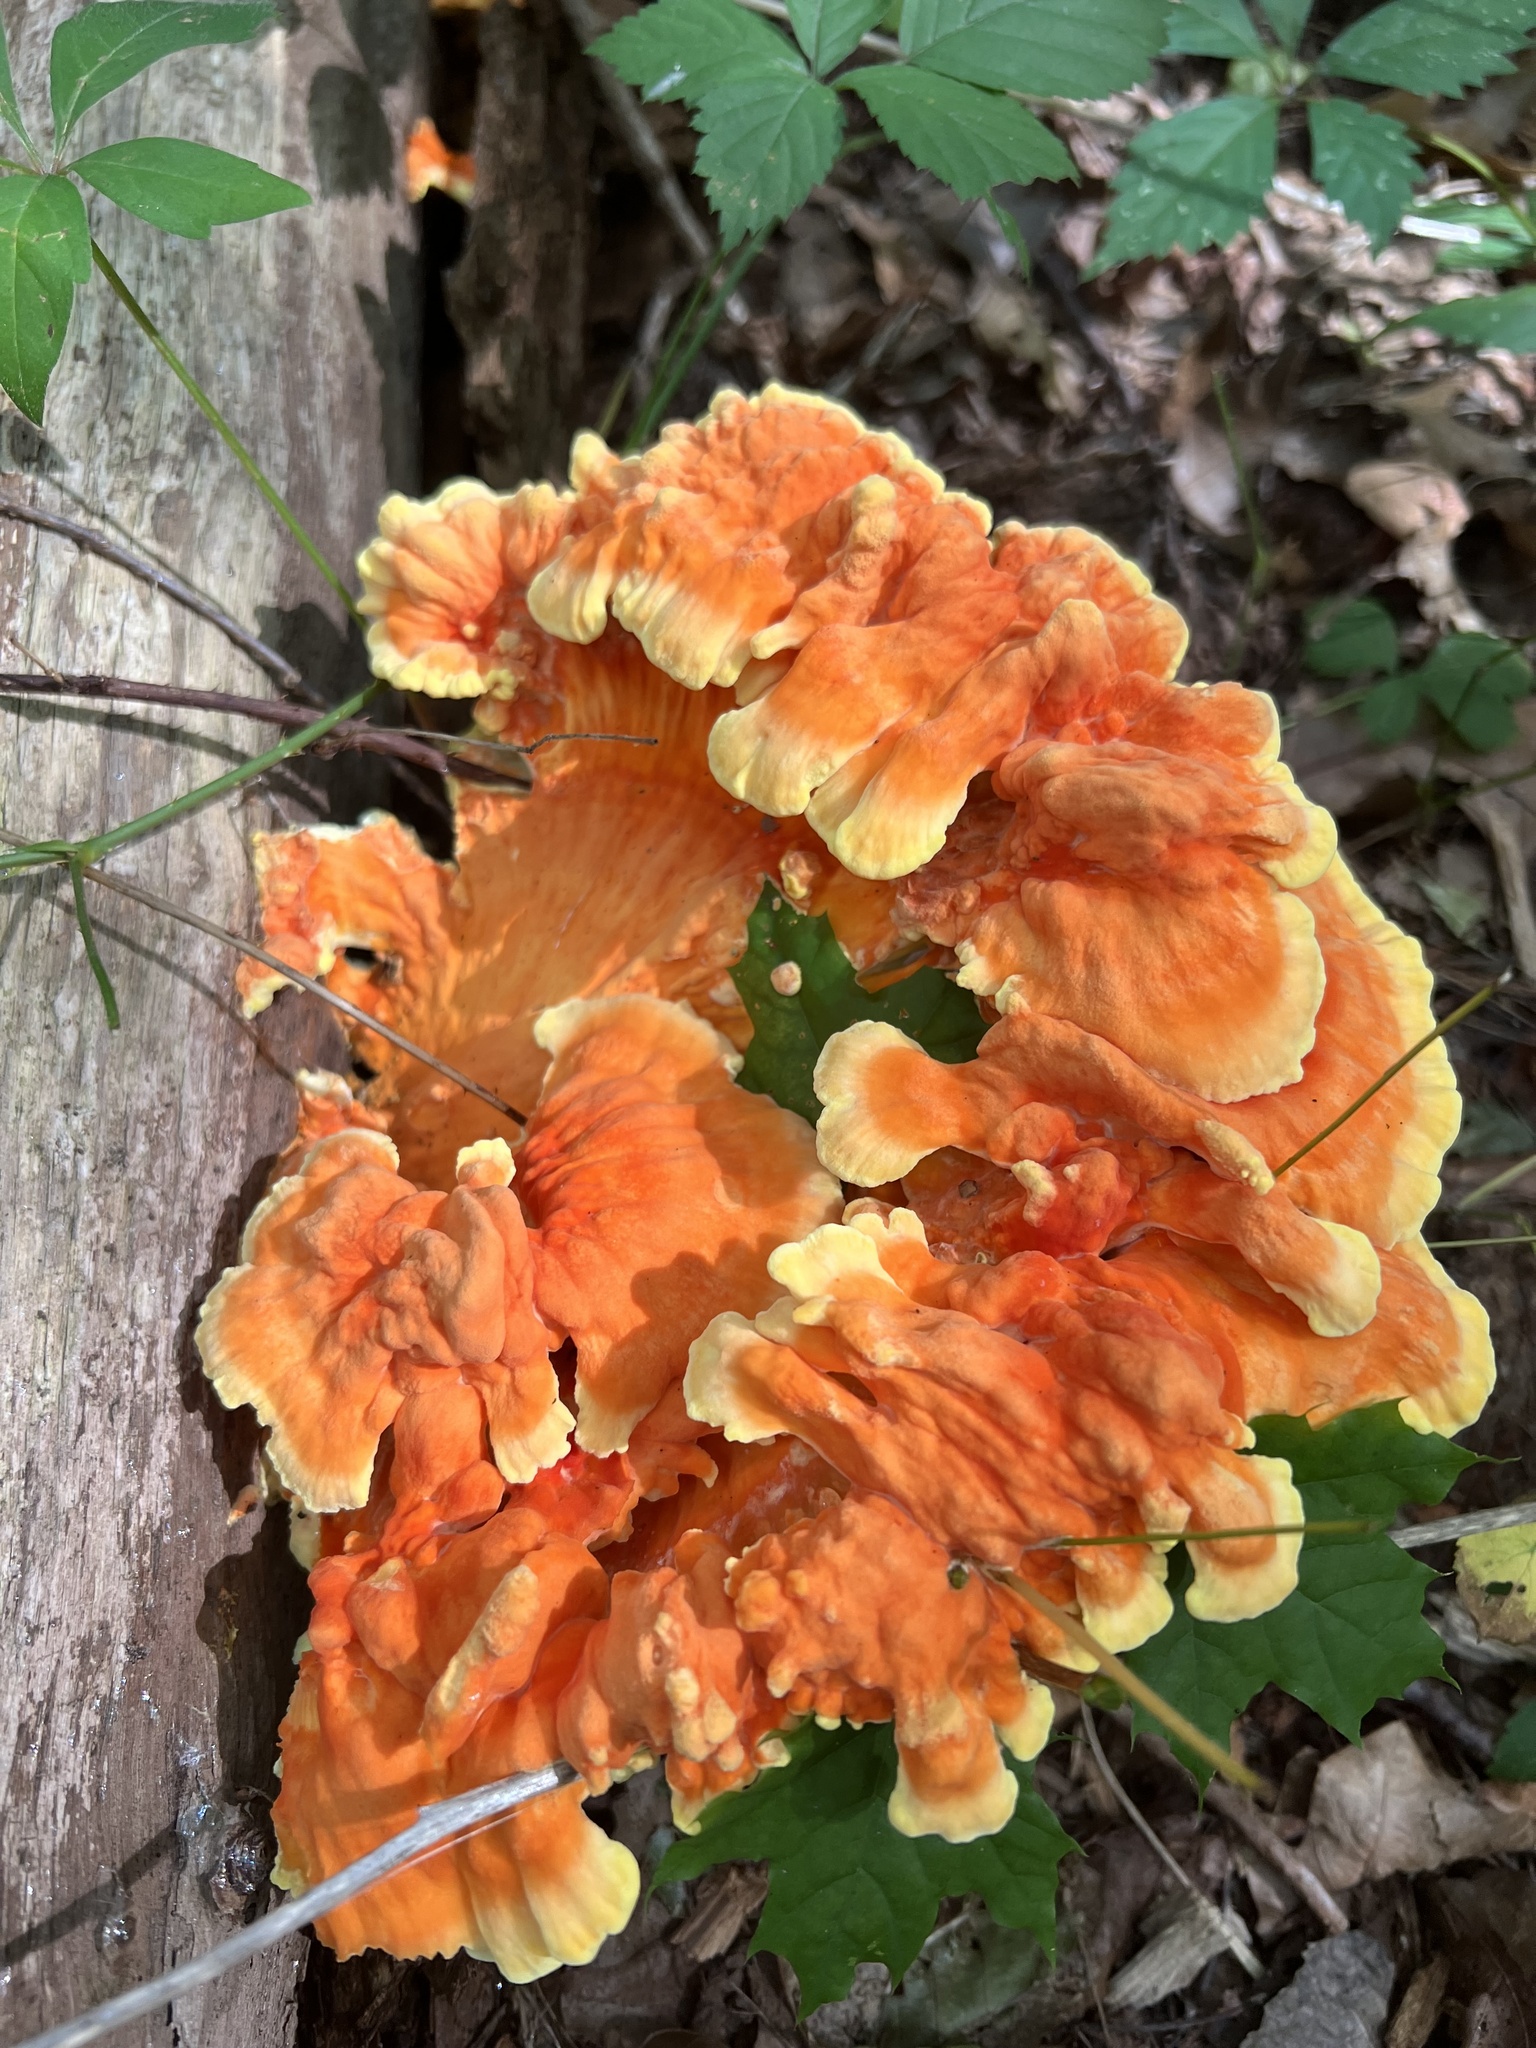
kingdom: Fungi
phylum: Basidiomycota
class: Agaricomycetes
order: Polyporales
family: Laetiporaceae
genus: Laetiporus
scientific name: Laetiporus sulphureus
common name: Chicken of the woods
